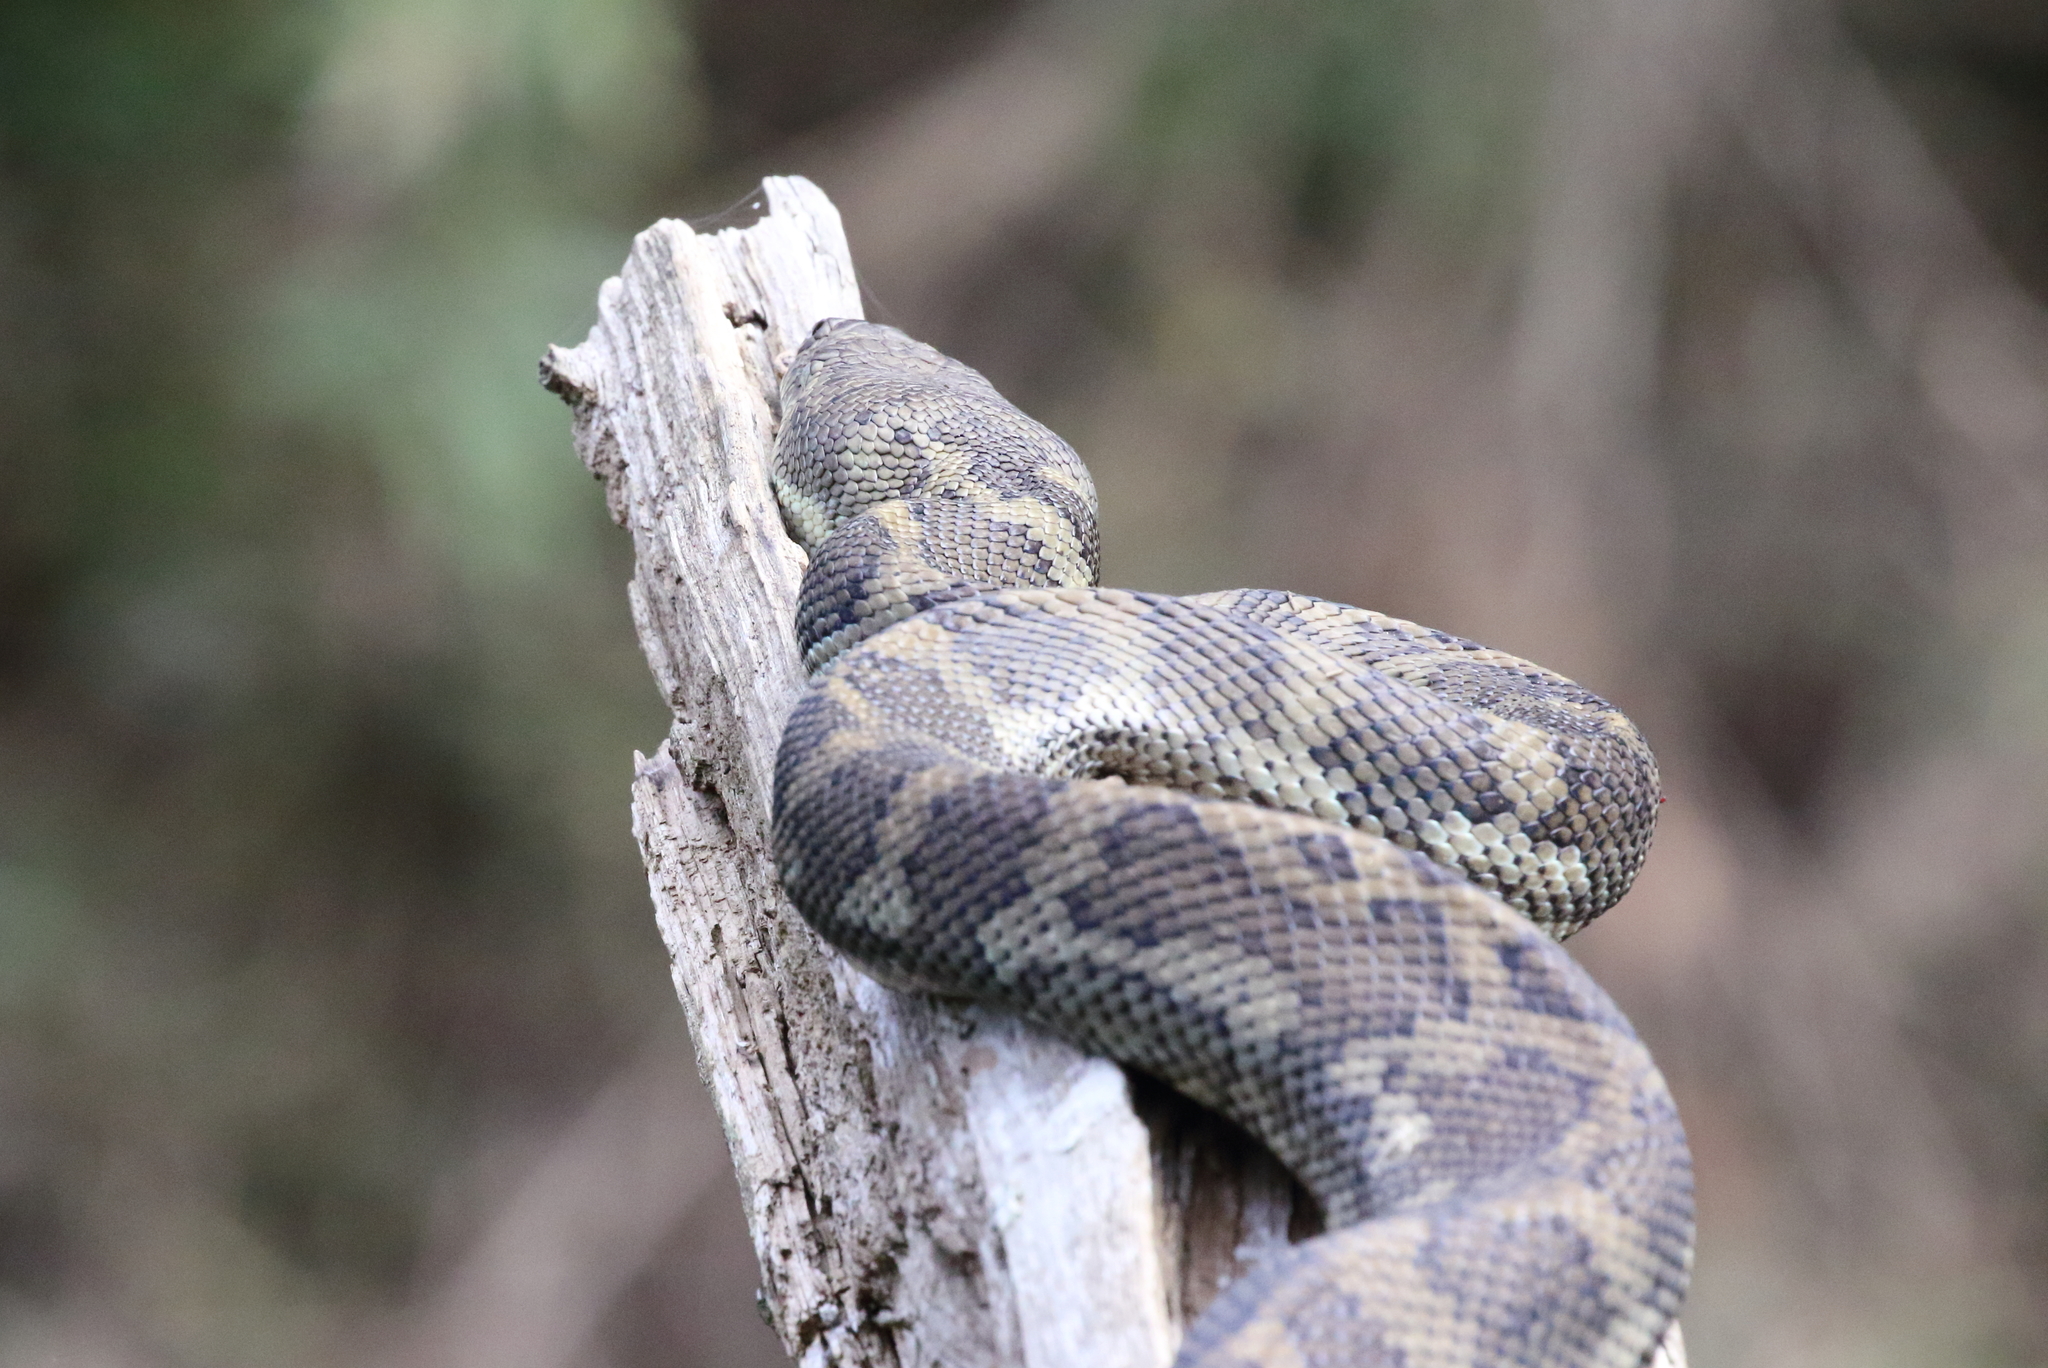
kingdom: Animalia
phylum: Chordata
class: Squamata
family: Pythonidae
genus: Morelia
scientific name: Morelia spilota
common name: Carpet python
